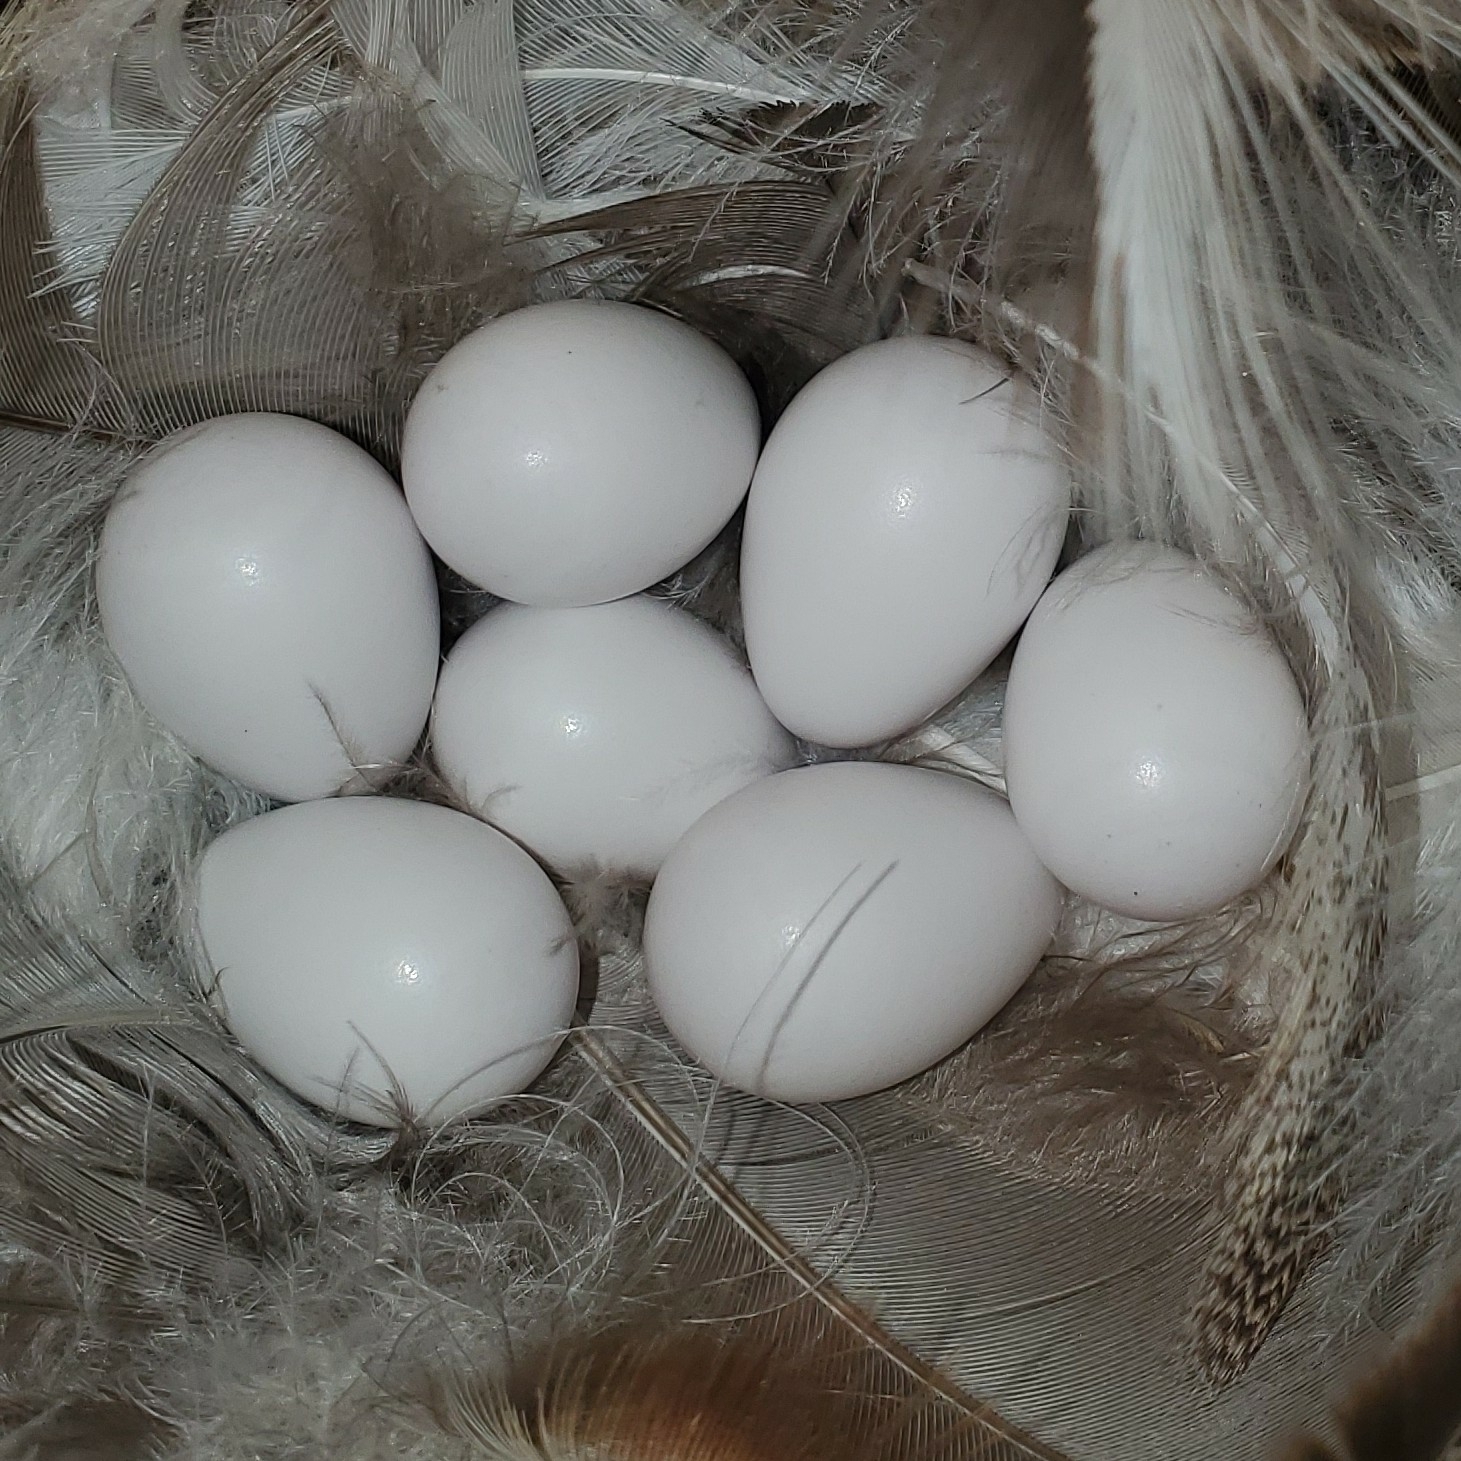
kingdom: Animalia
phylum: Chordata
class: Aves
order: Passeriformes
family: Hirundinidae
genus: Tachycineta
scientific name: Tachycineta bicolor
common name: Tree swallow
